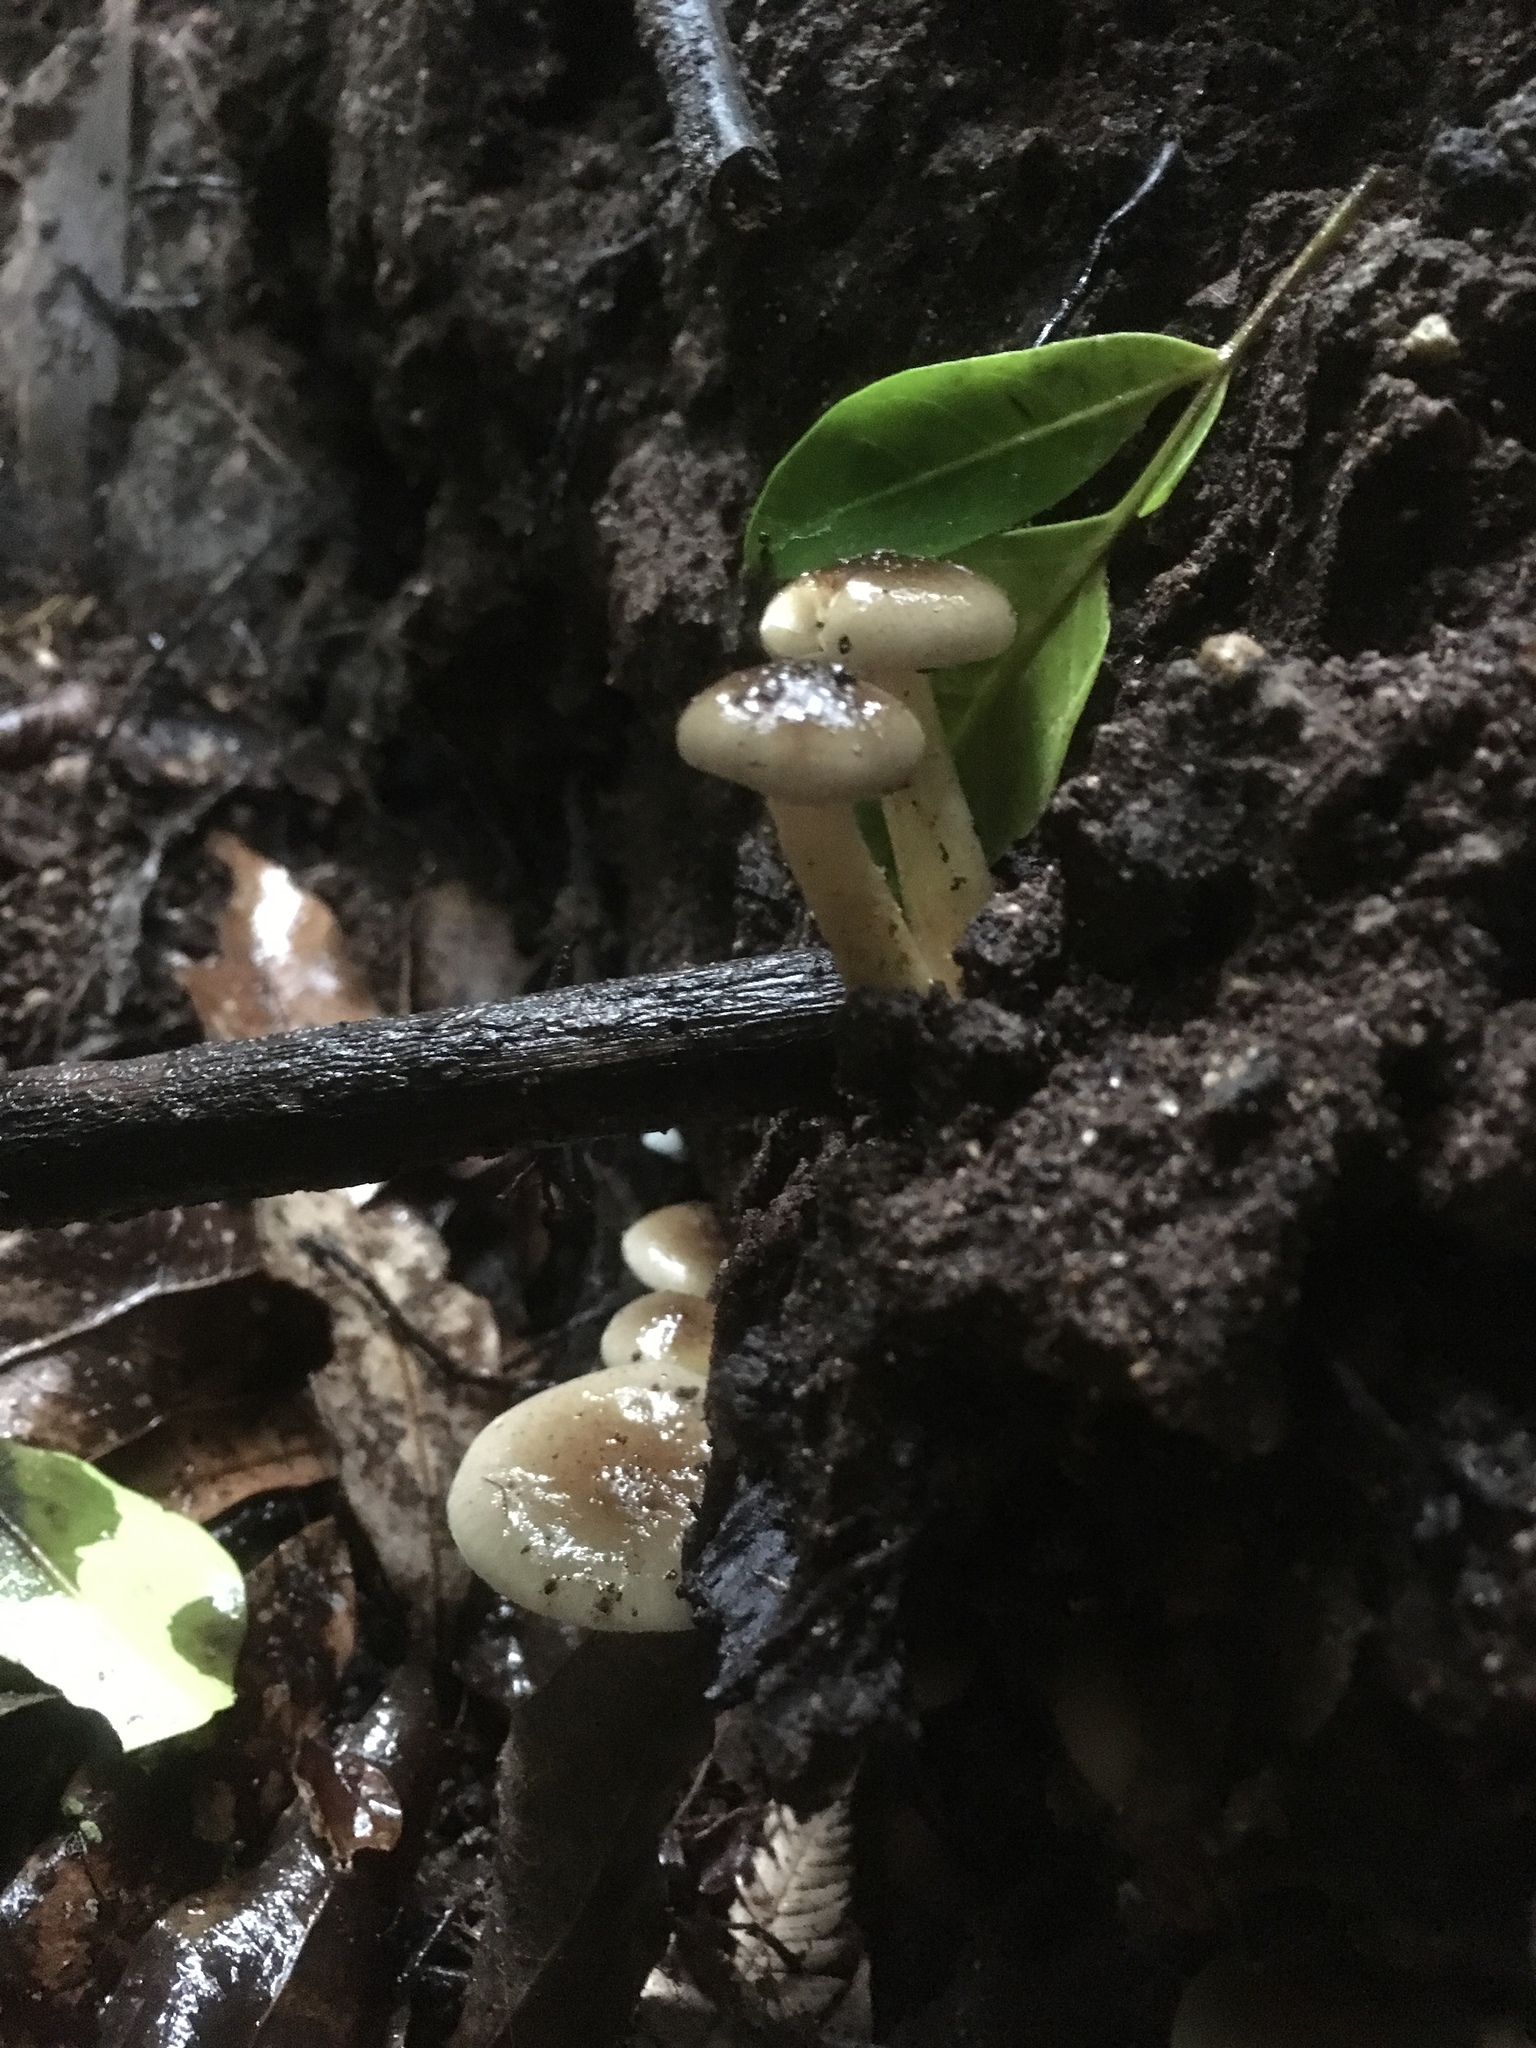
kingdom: Fungi
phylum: Basidiomycota
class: Agaricomycetes
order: Agaricales
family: Physalacriaceae
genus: Armillaria
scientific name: Armillaria novae-zelandiae
